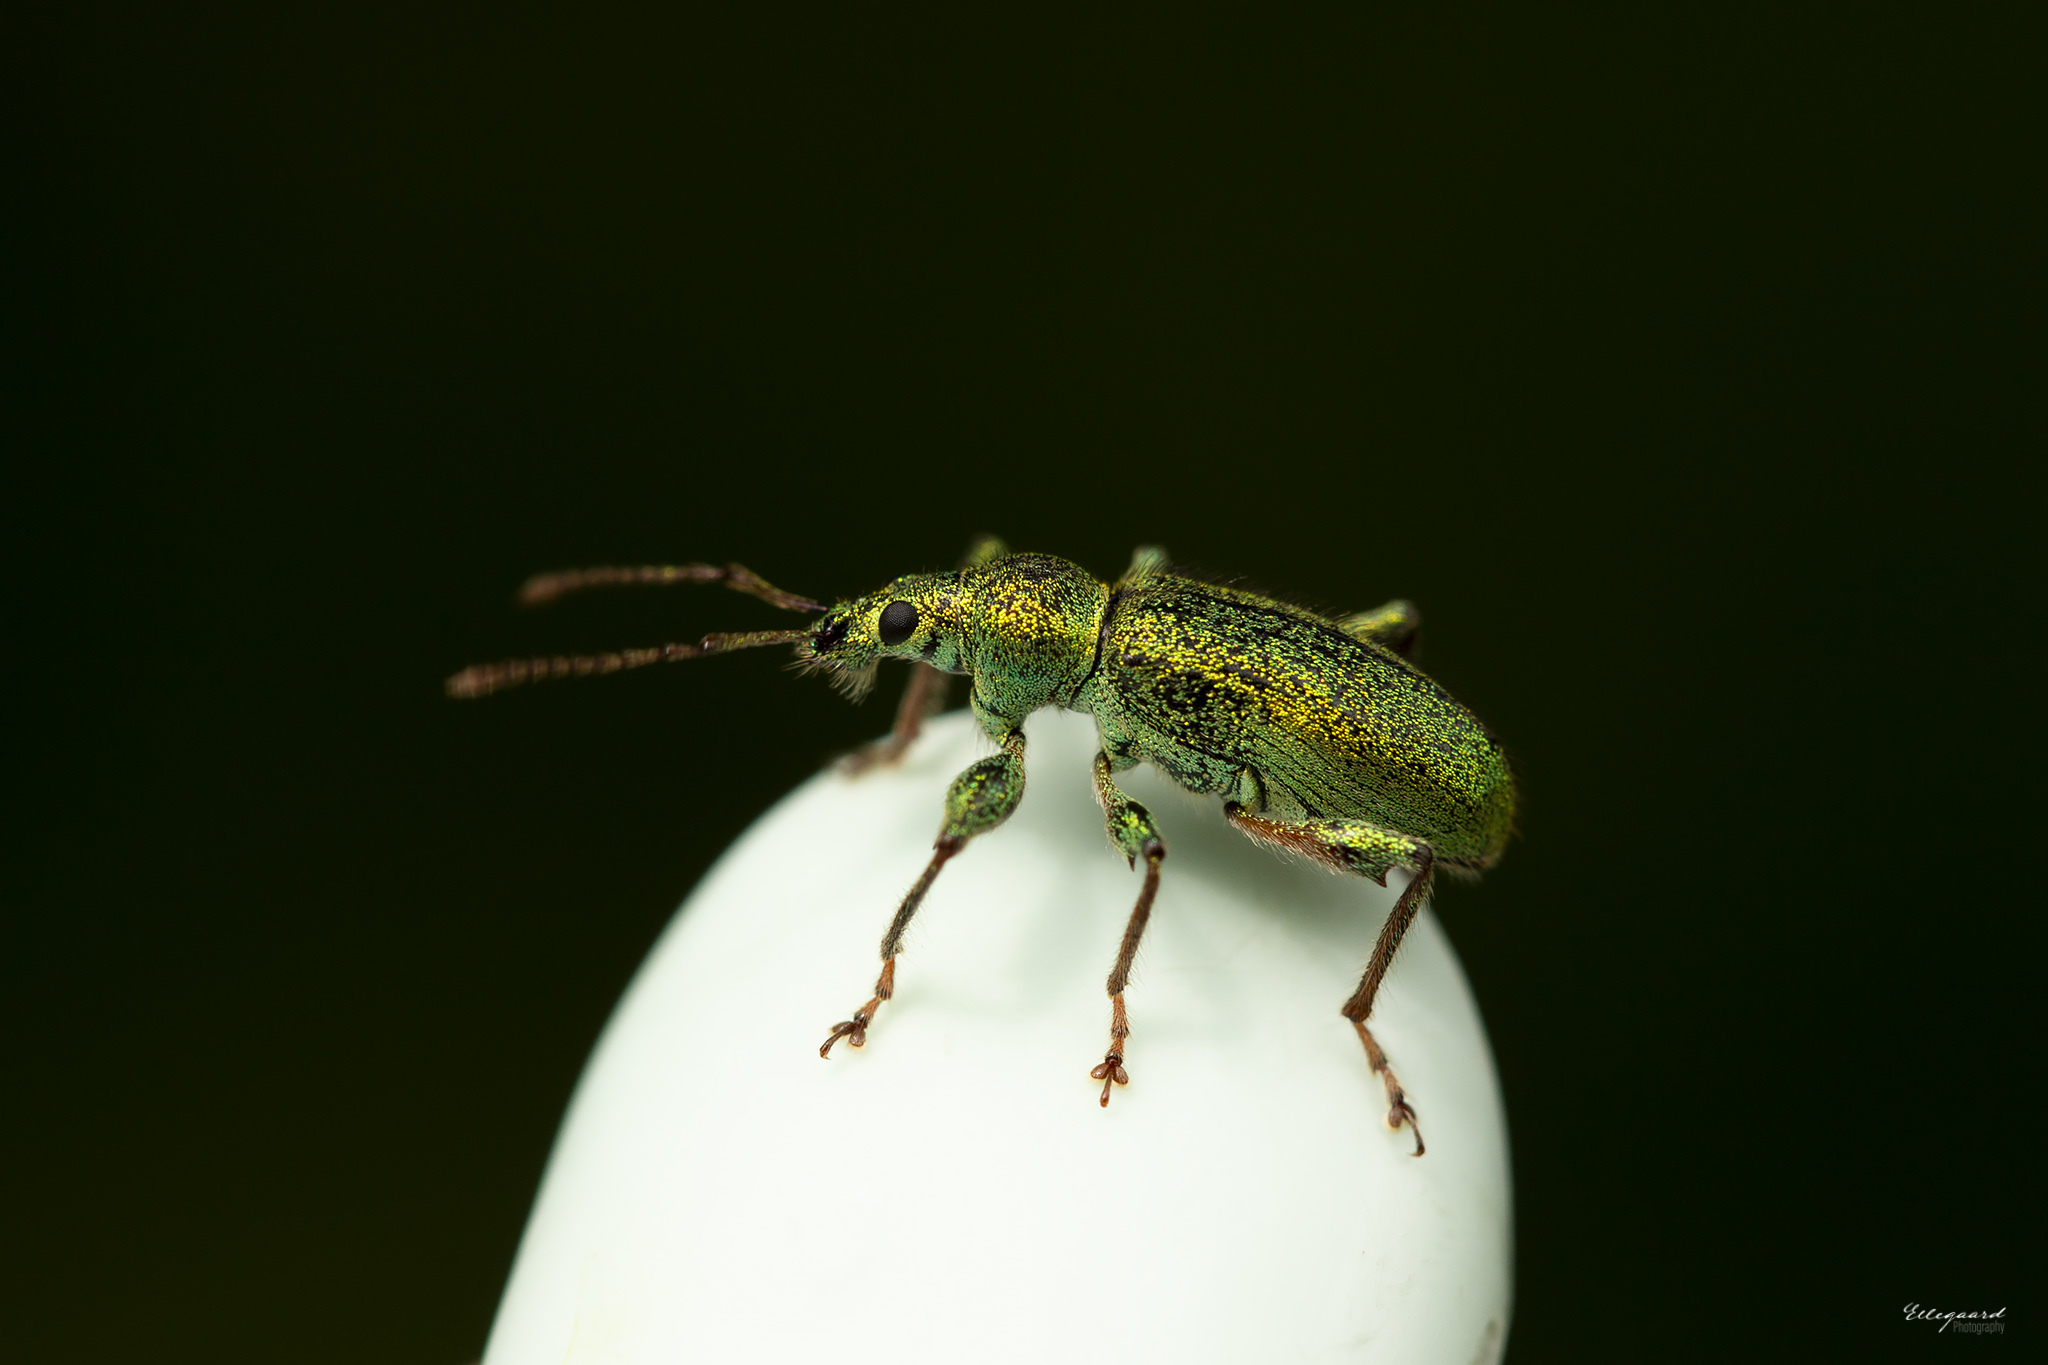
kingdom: Animalia
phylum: Arthropoda
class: Insecta
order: Coleoptera
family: Curculionidae
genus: Phyllobius
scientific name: Phyllobius arborator
